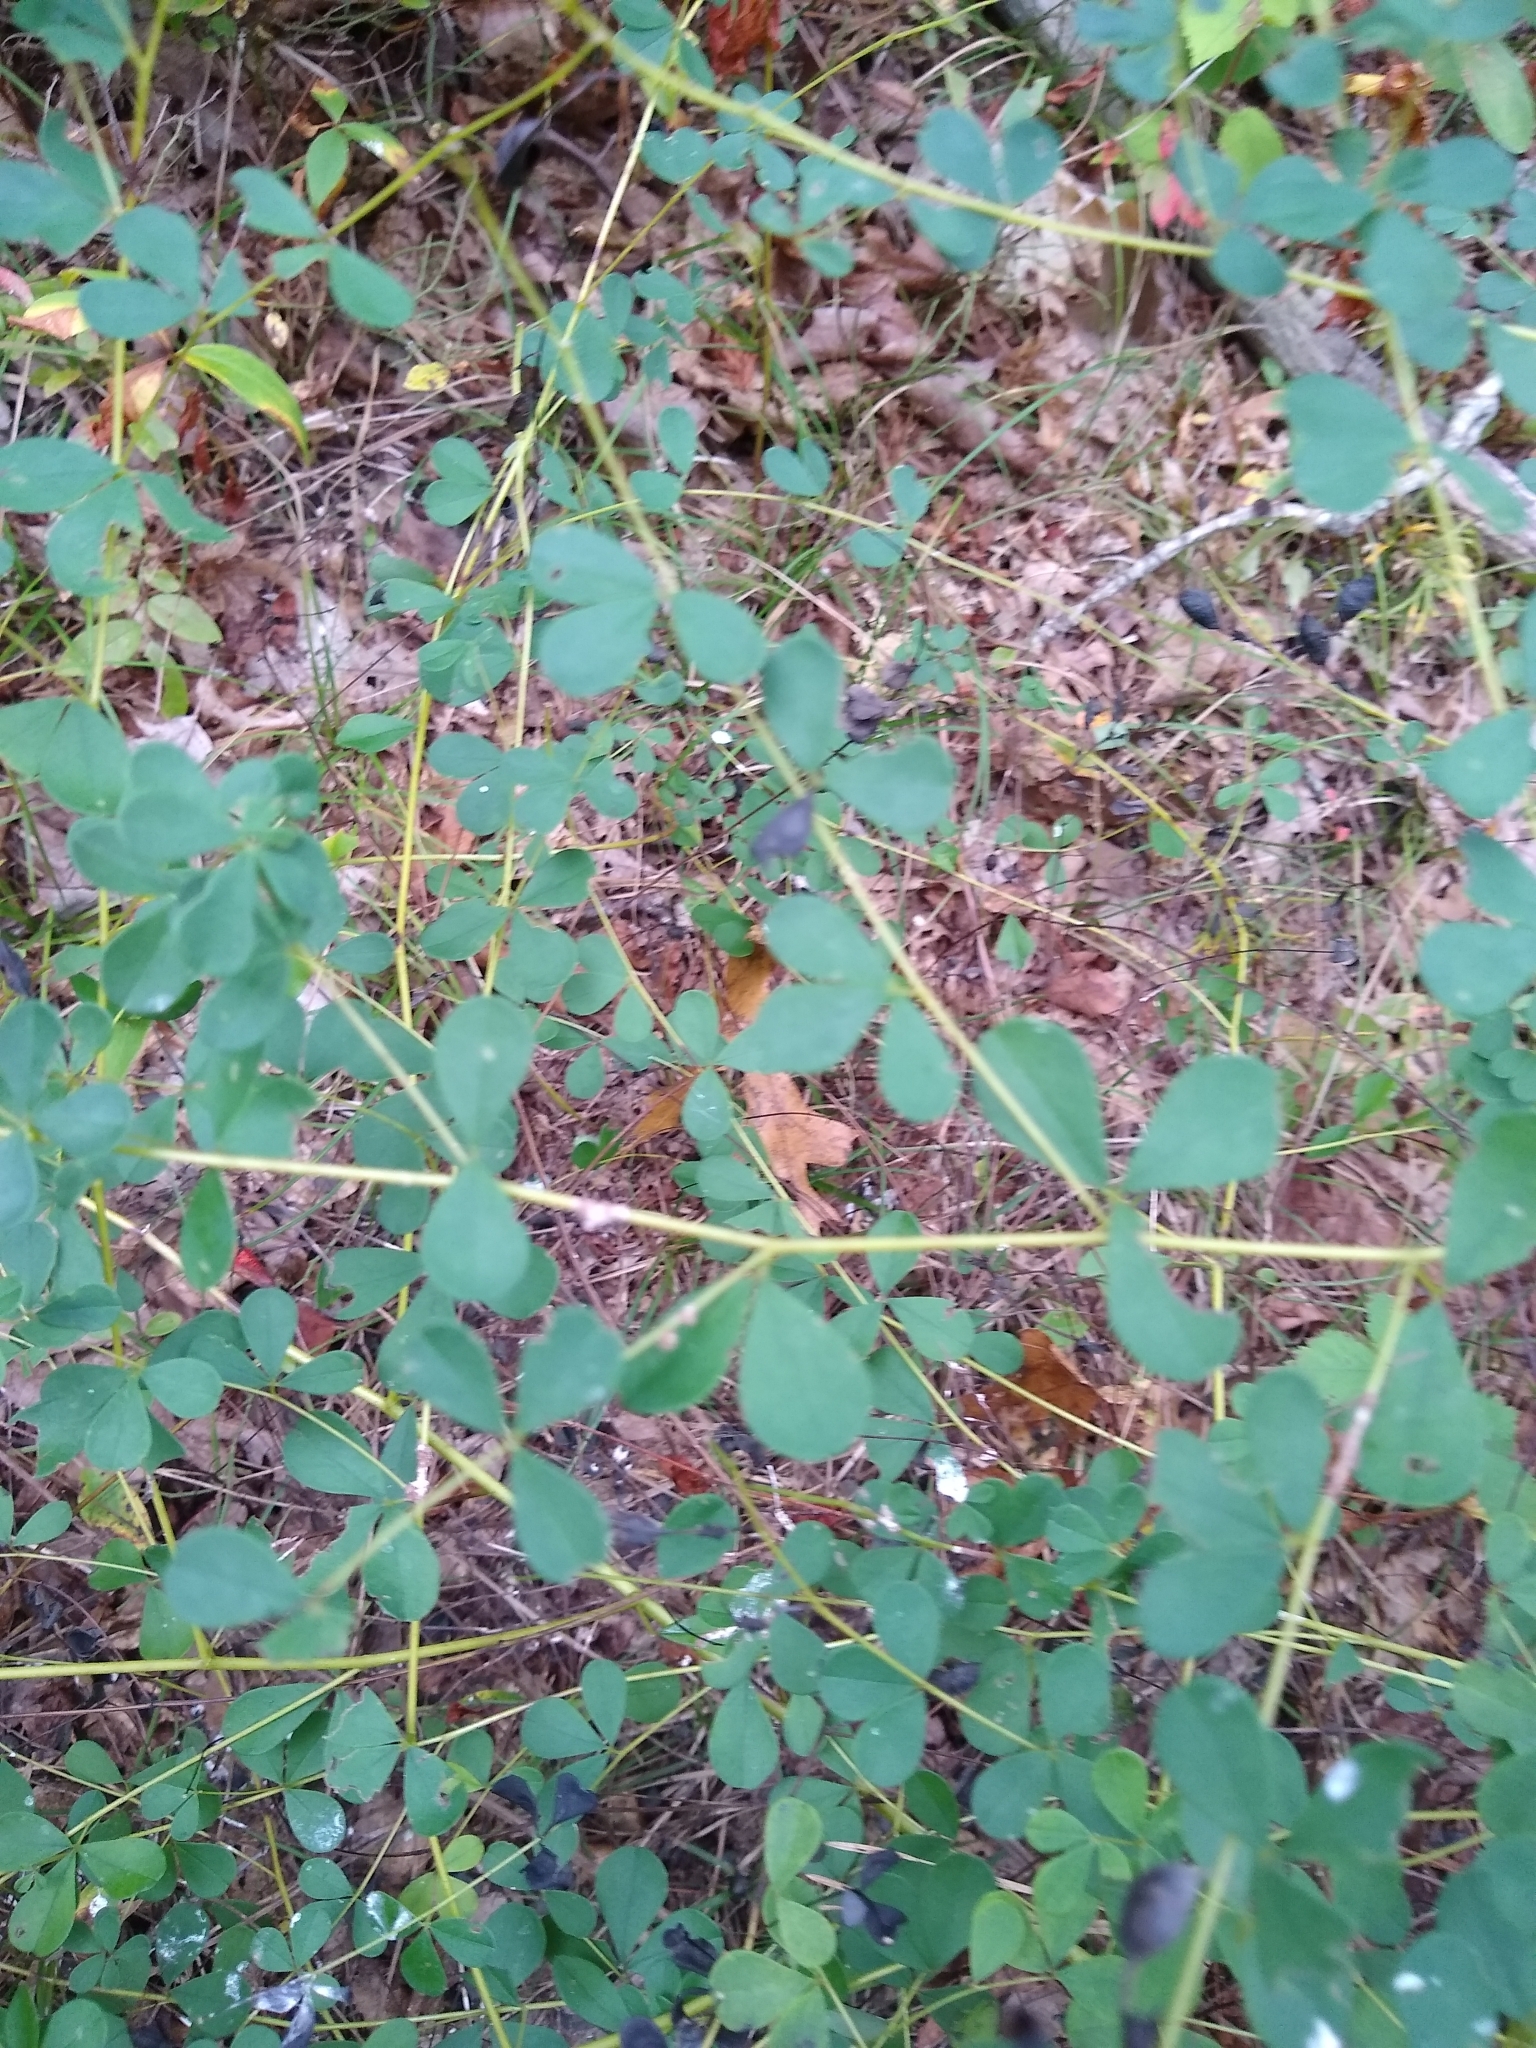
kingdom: Plantae
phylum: Tracheophyta
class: Magnoliopsida
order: Fabales
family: Fabaceae
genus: Baptisia
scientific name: Baptisia tinctoria
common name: Wild indigo
